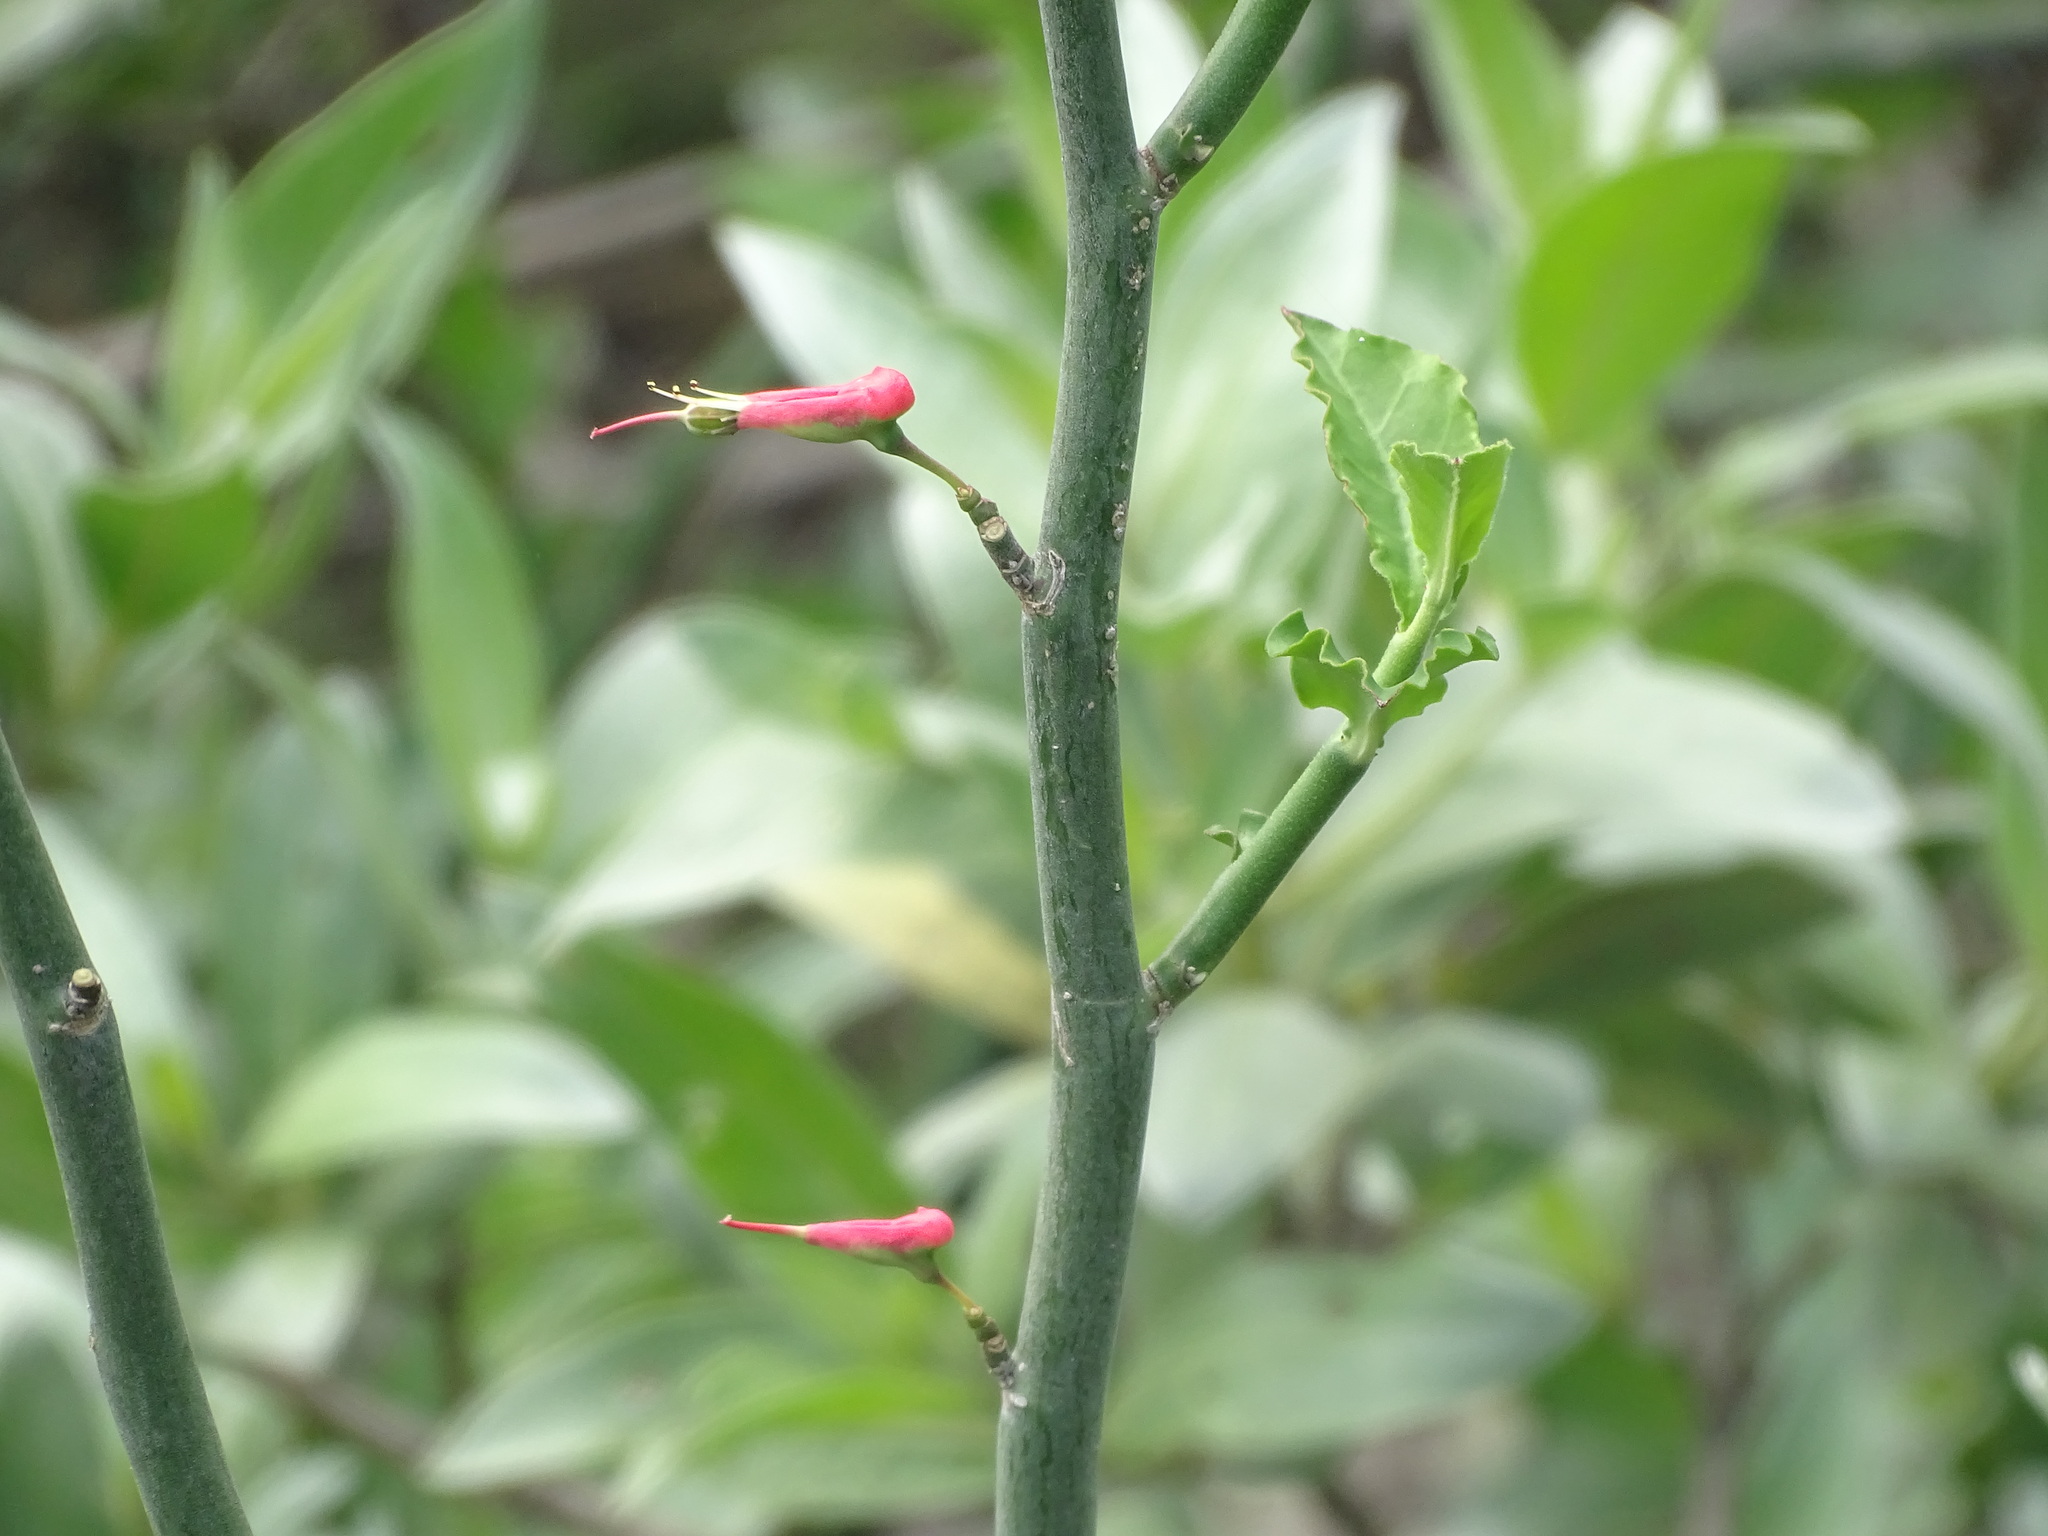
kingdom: Plantae
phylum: Tracheophyta
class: Magnoliopsida
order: Malpighiales
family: Euphorbiaceae
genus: Euphorbia
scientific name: Euphorbia tithymaloides
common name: Slipperplant
